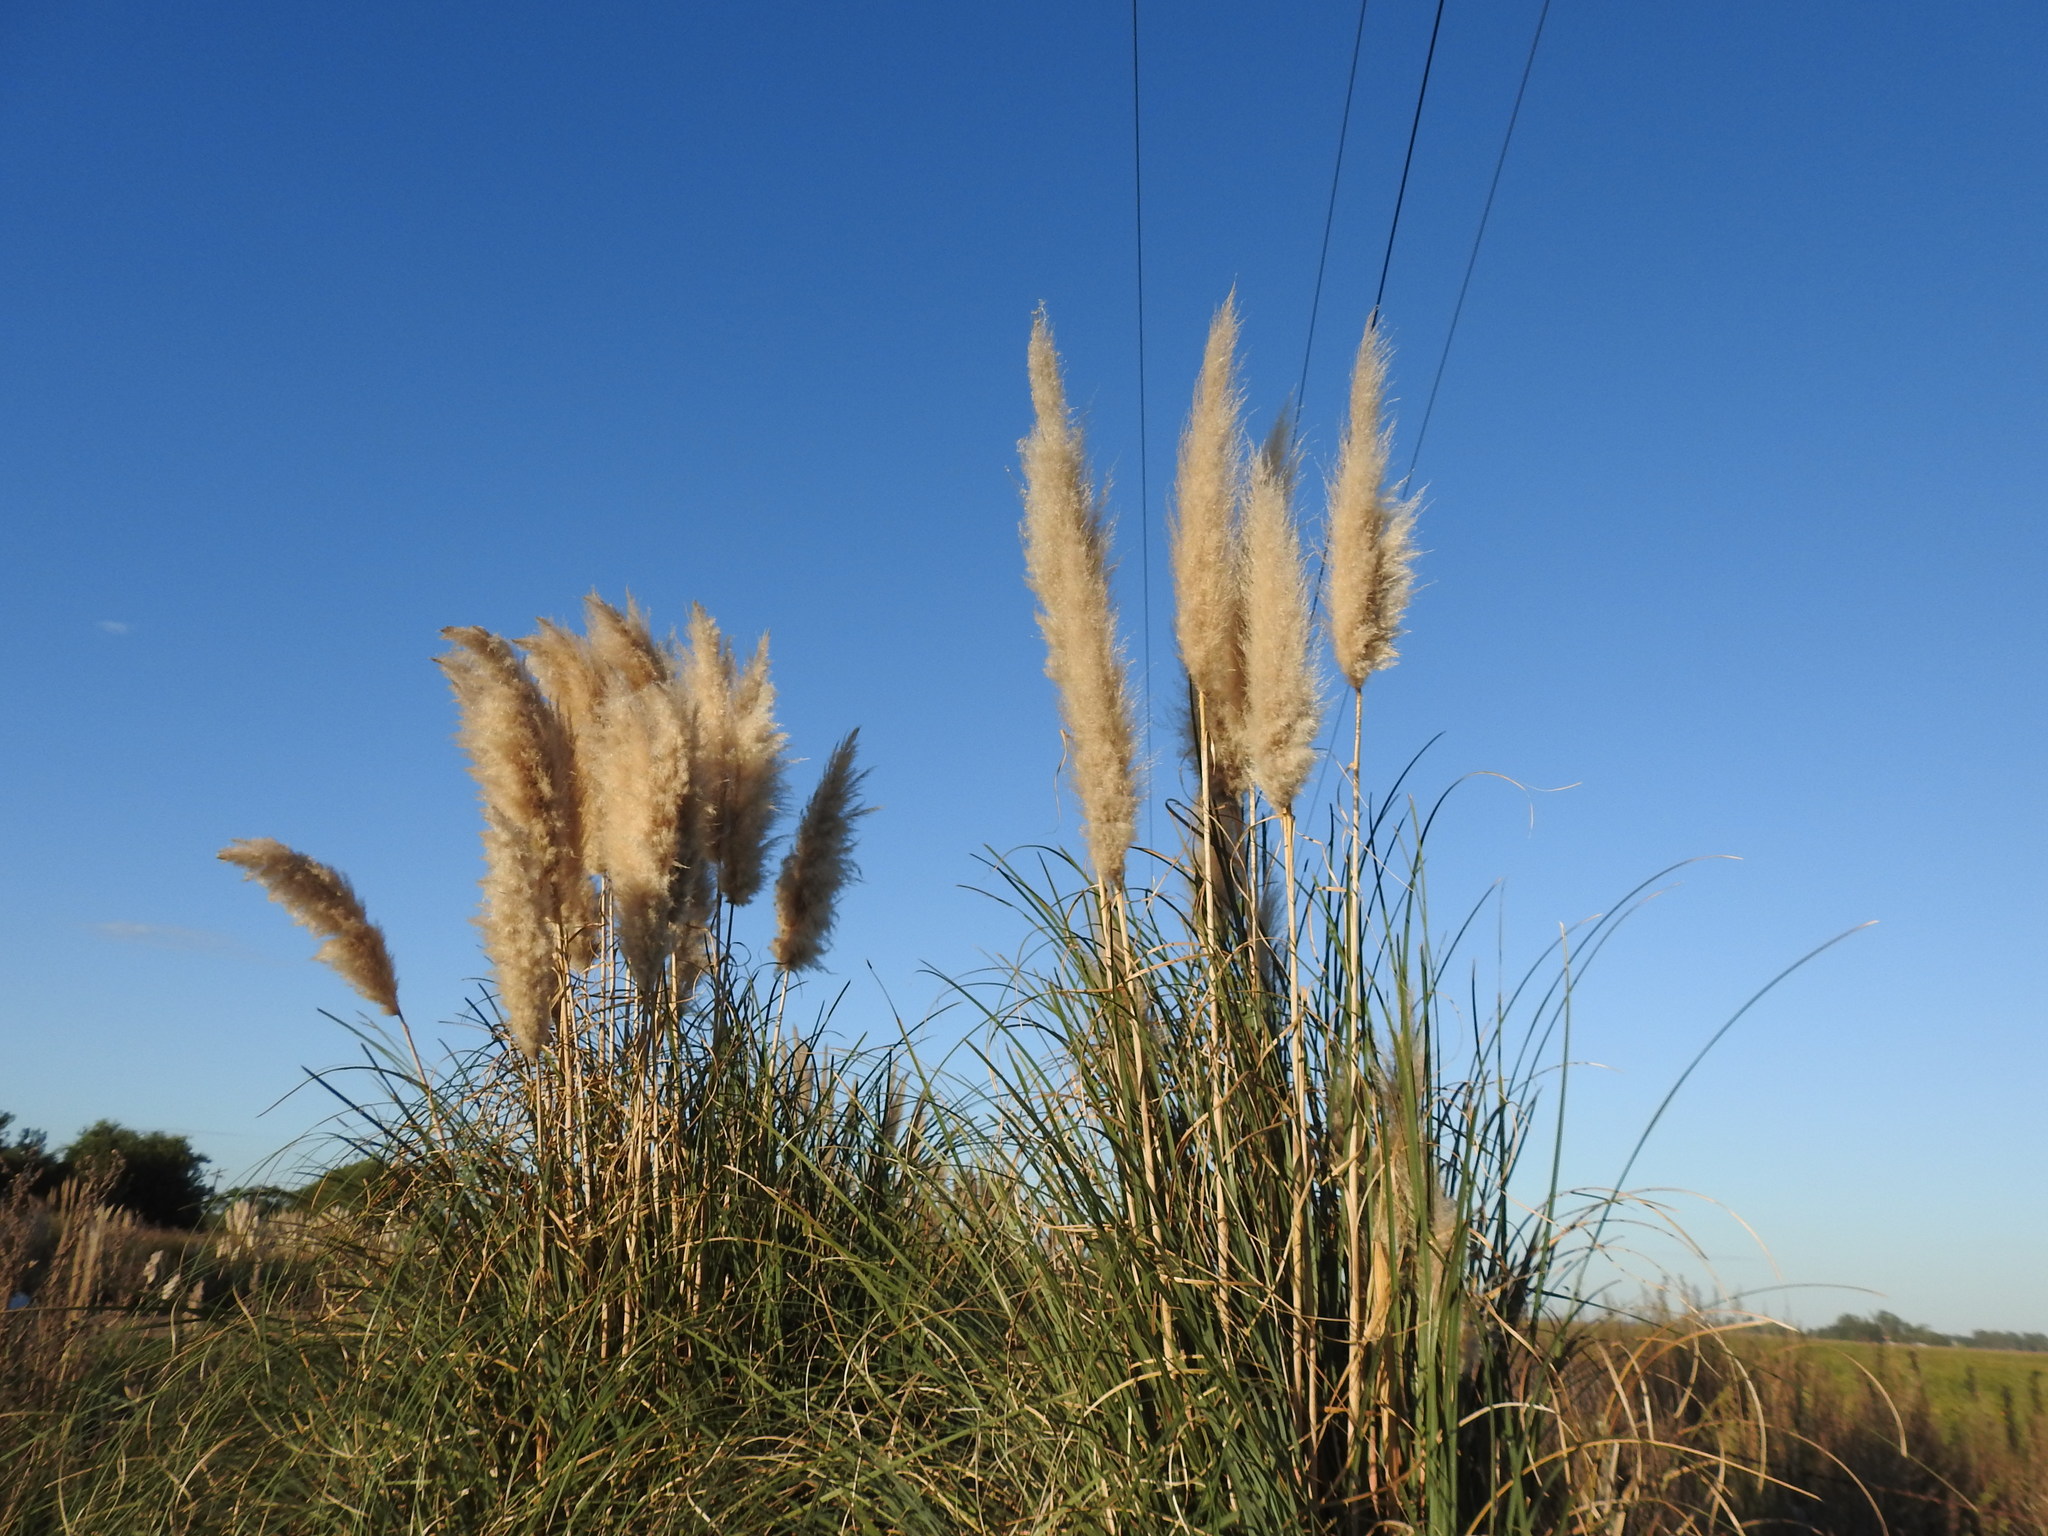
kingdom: Plantae
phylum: Tracheophyta
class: Liliopsida
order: Poales
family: Poaceae
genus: Cortaderia
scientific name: Cortaderia selloana
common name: Uruguayan pampas grass
